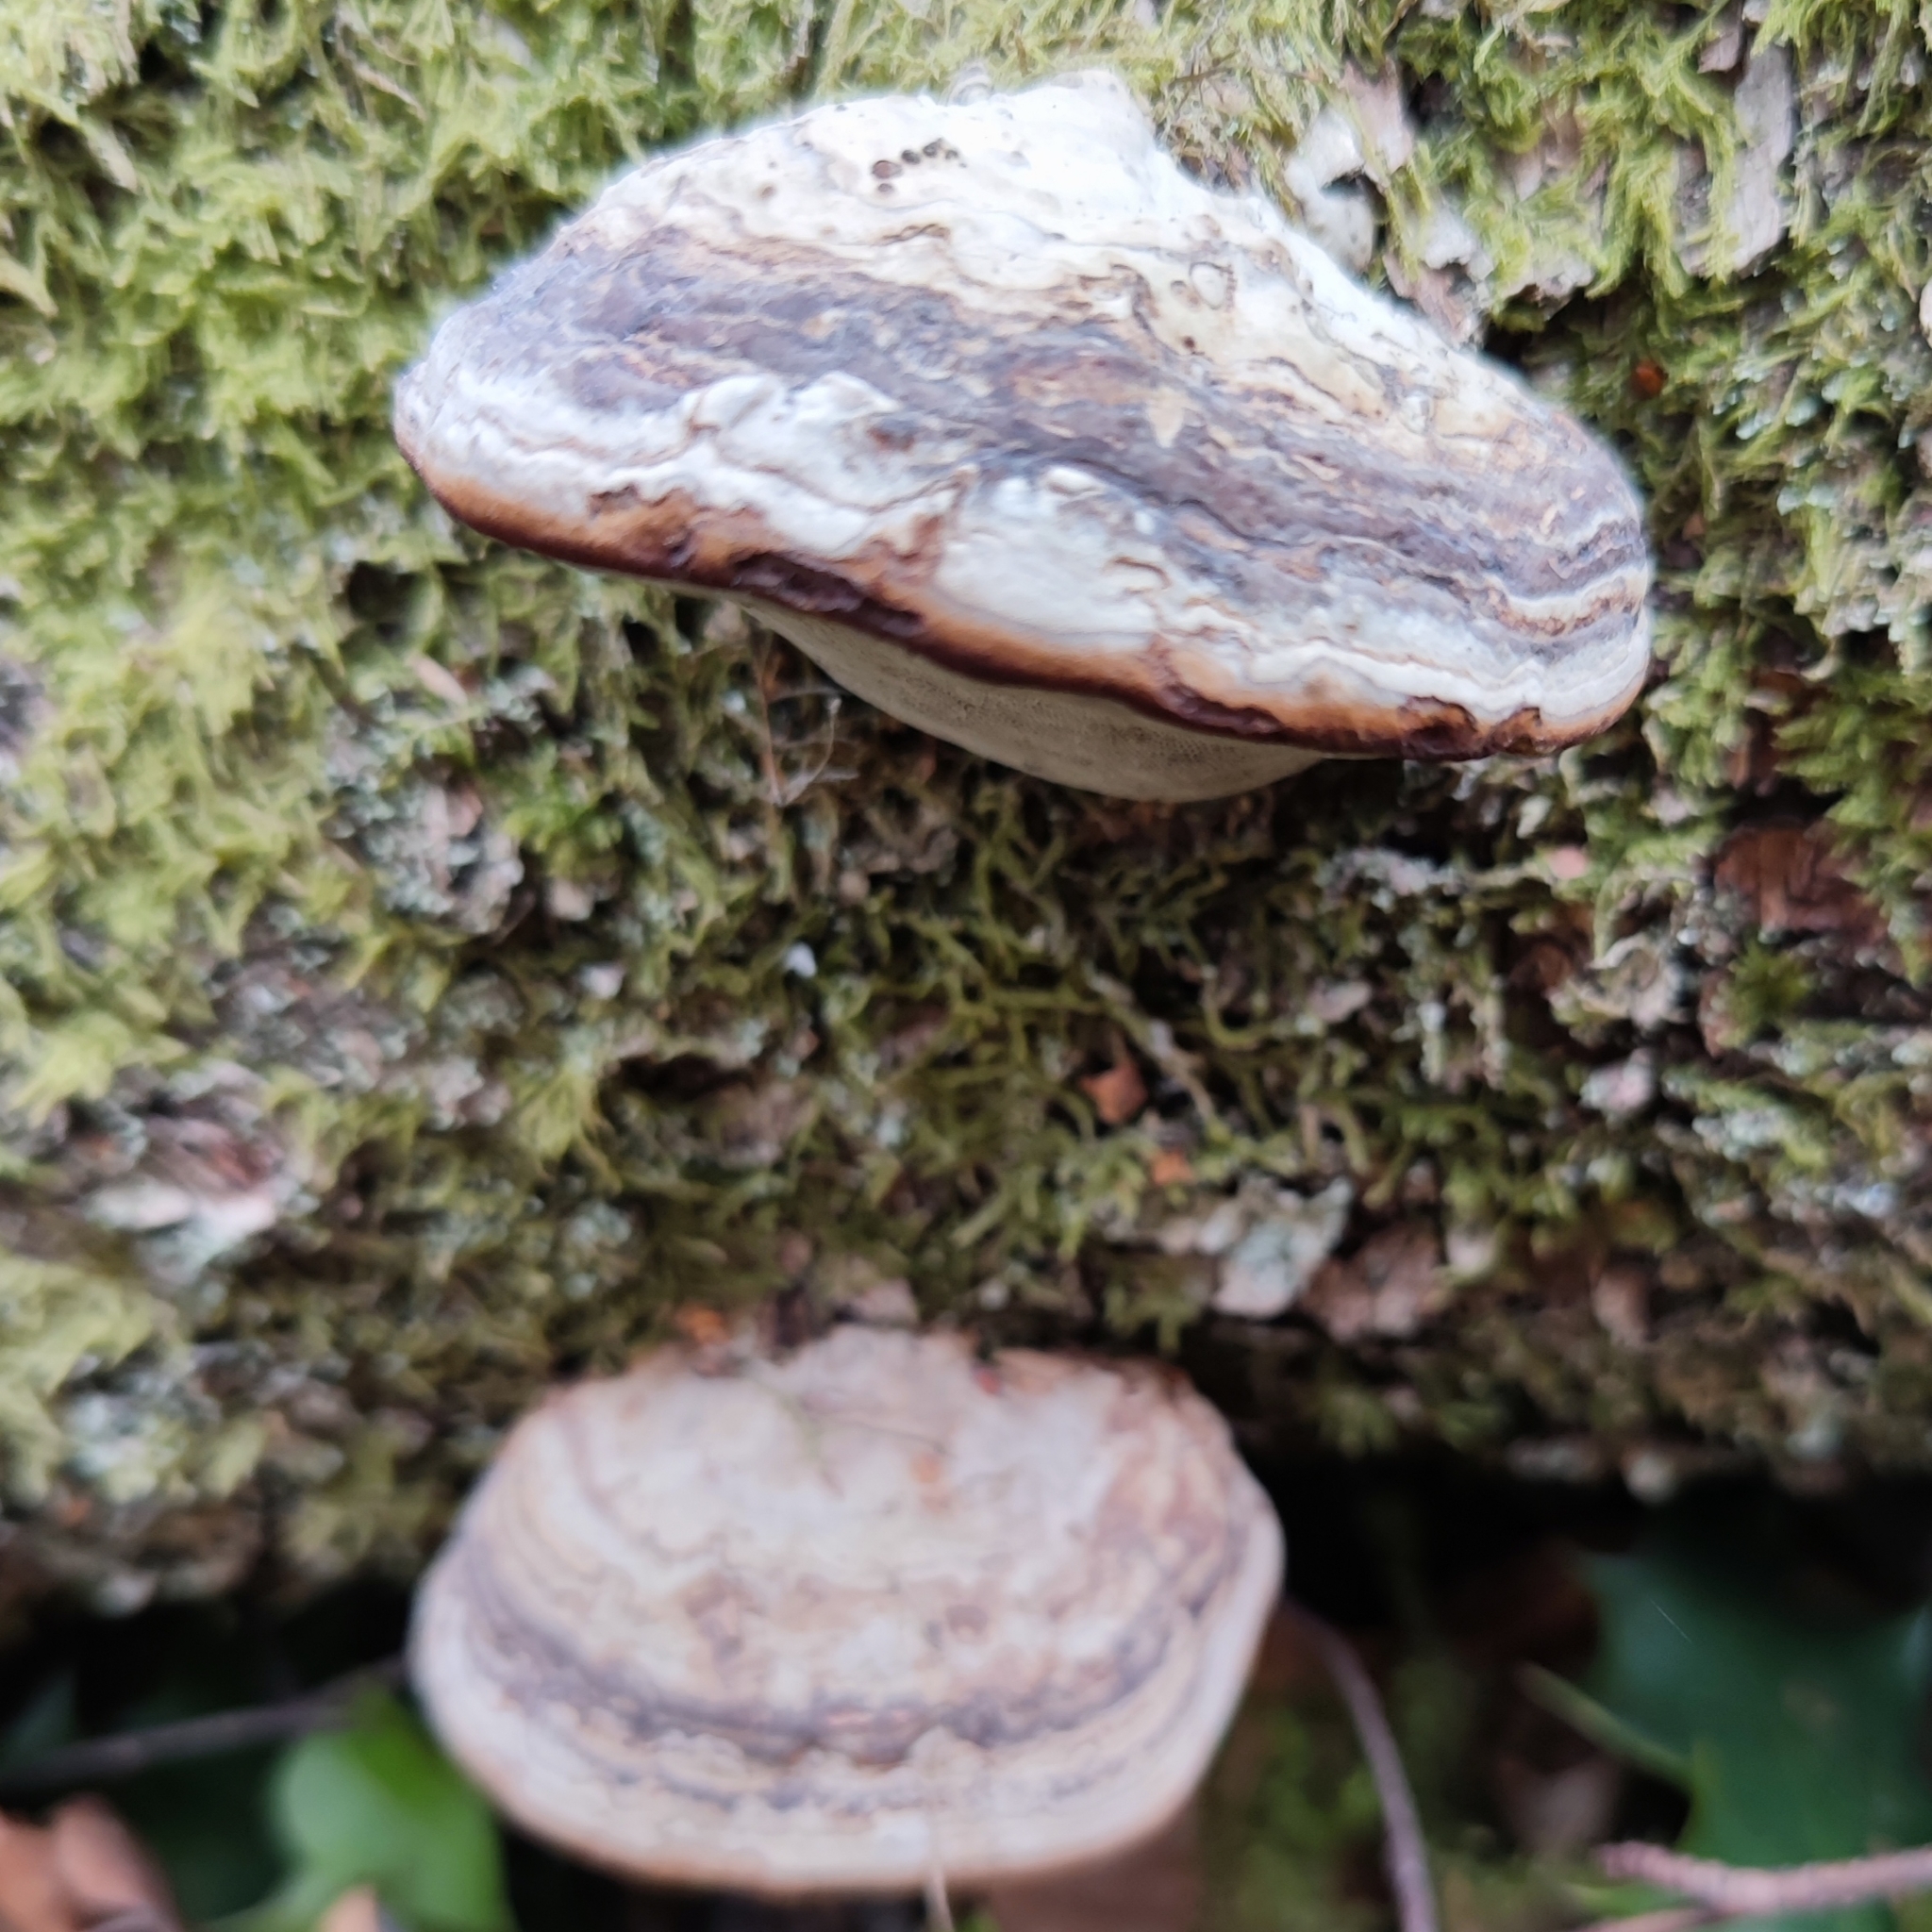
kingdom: Fungi
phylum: Basidiomycota
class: Agaricomycetes
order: Polyporales
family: Polyporaceae
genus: Fomes
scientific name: Fomes fomentarius
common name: Hoof fungus
